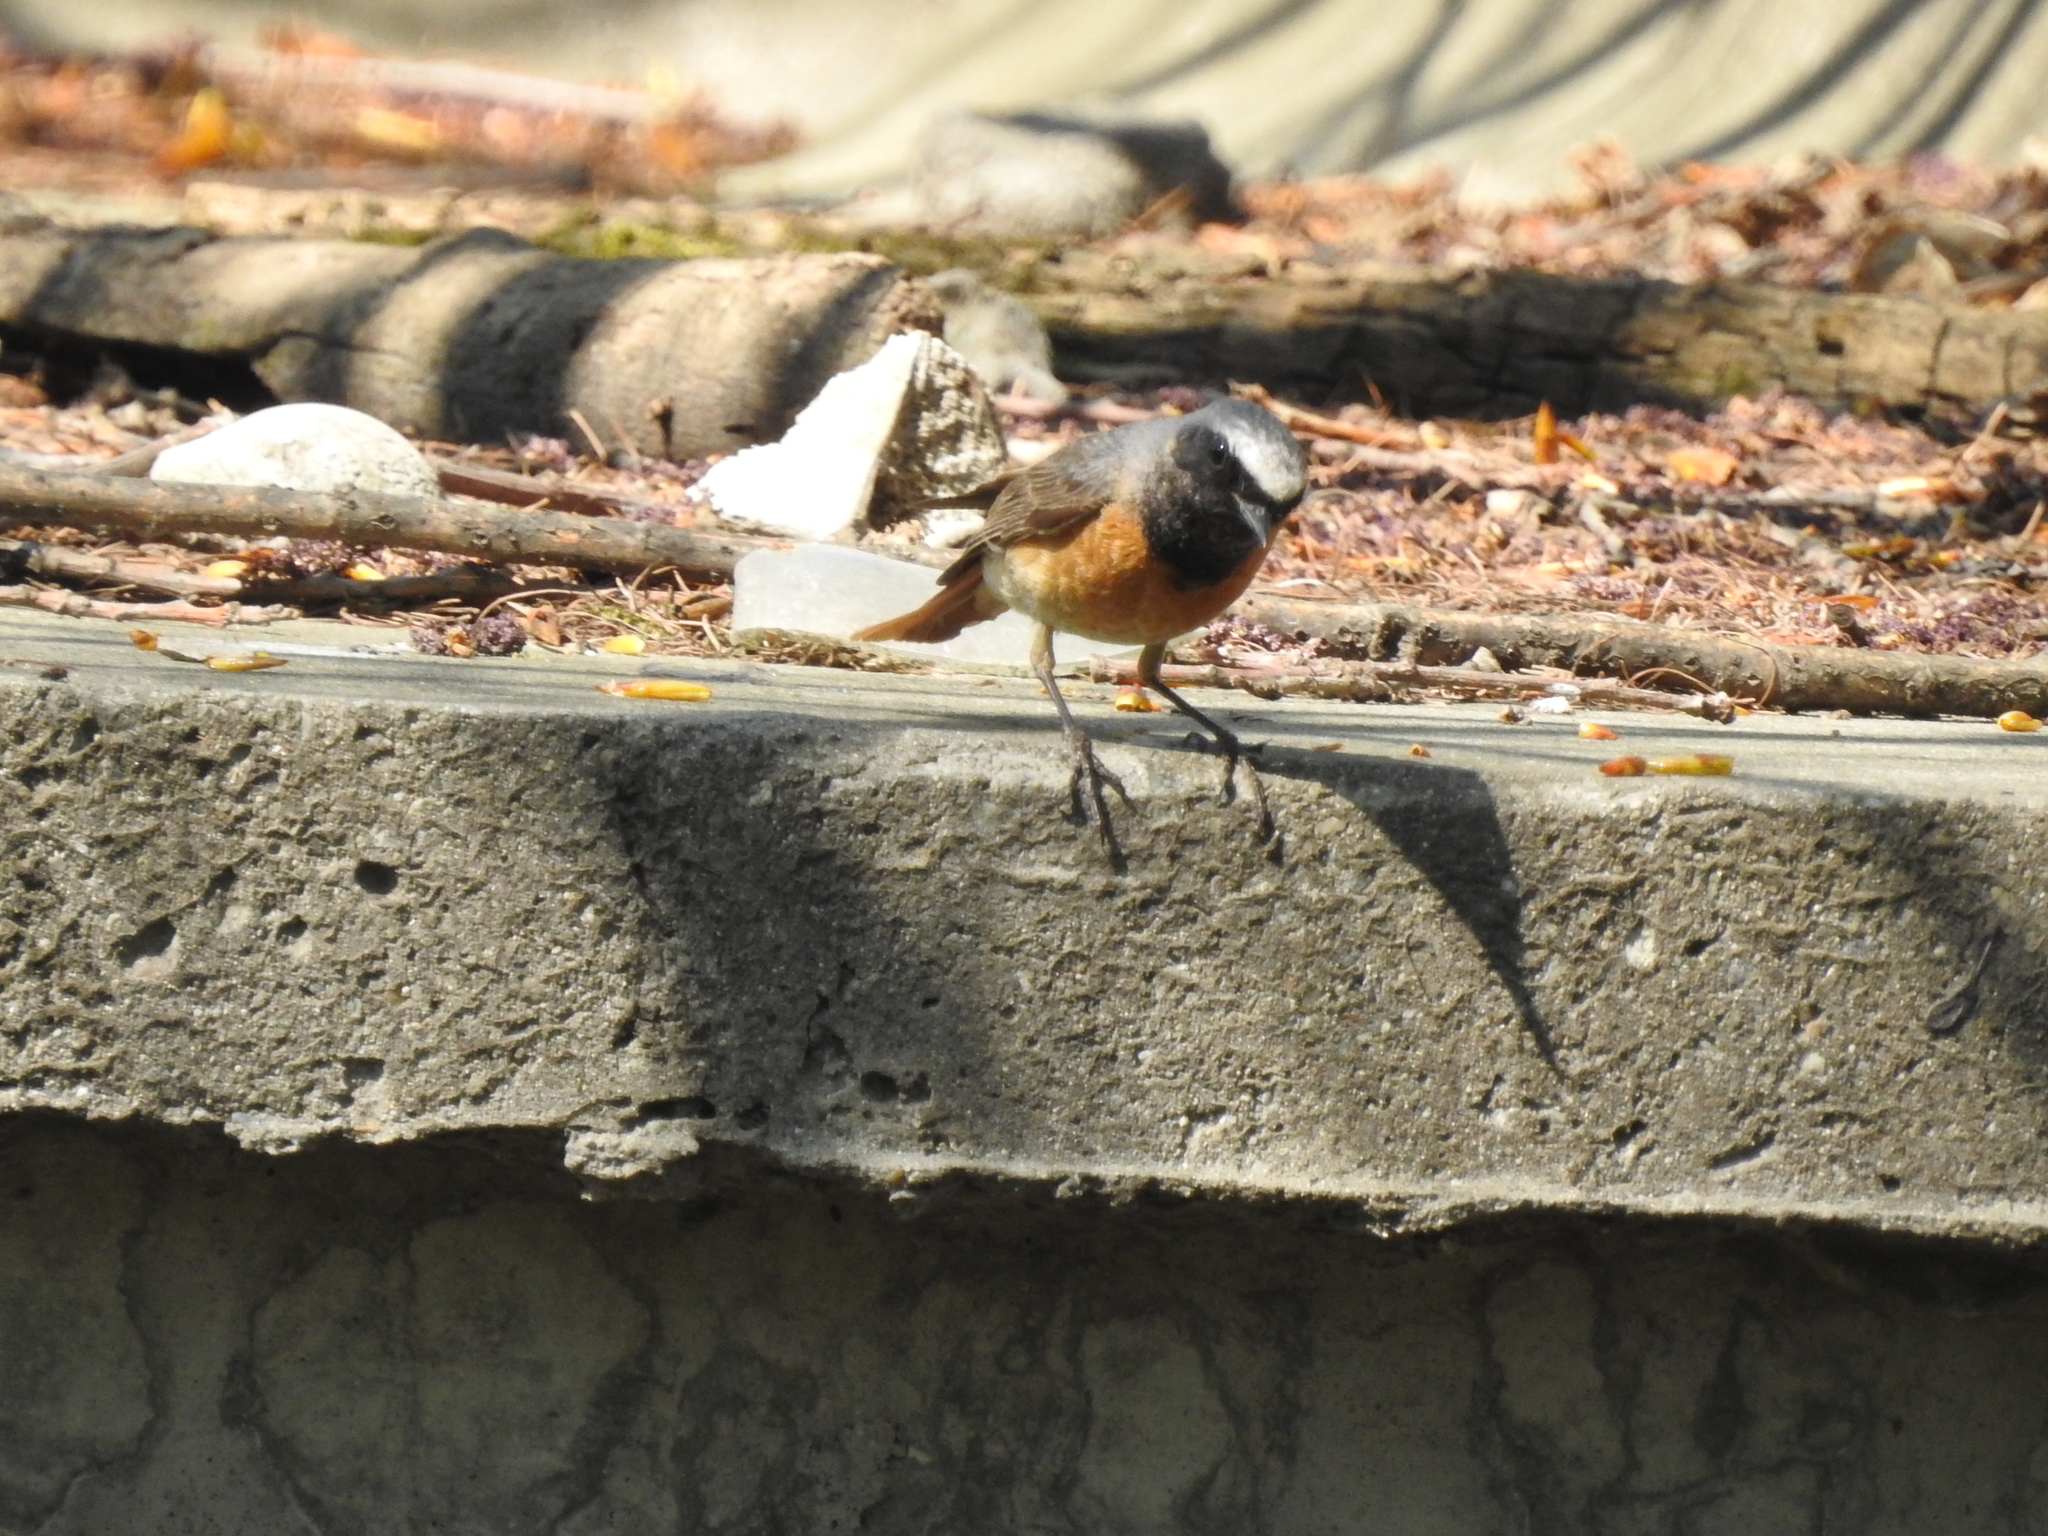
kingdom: Animalia
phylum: Chordata
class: Aves
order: Passeriformes
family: Muscicapidae
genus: Phoenicurus
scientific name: Phoenicurus phoenicurus
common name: Common redstart
